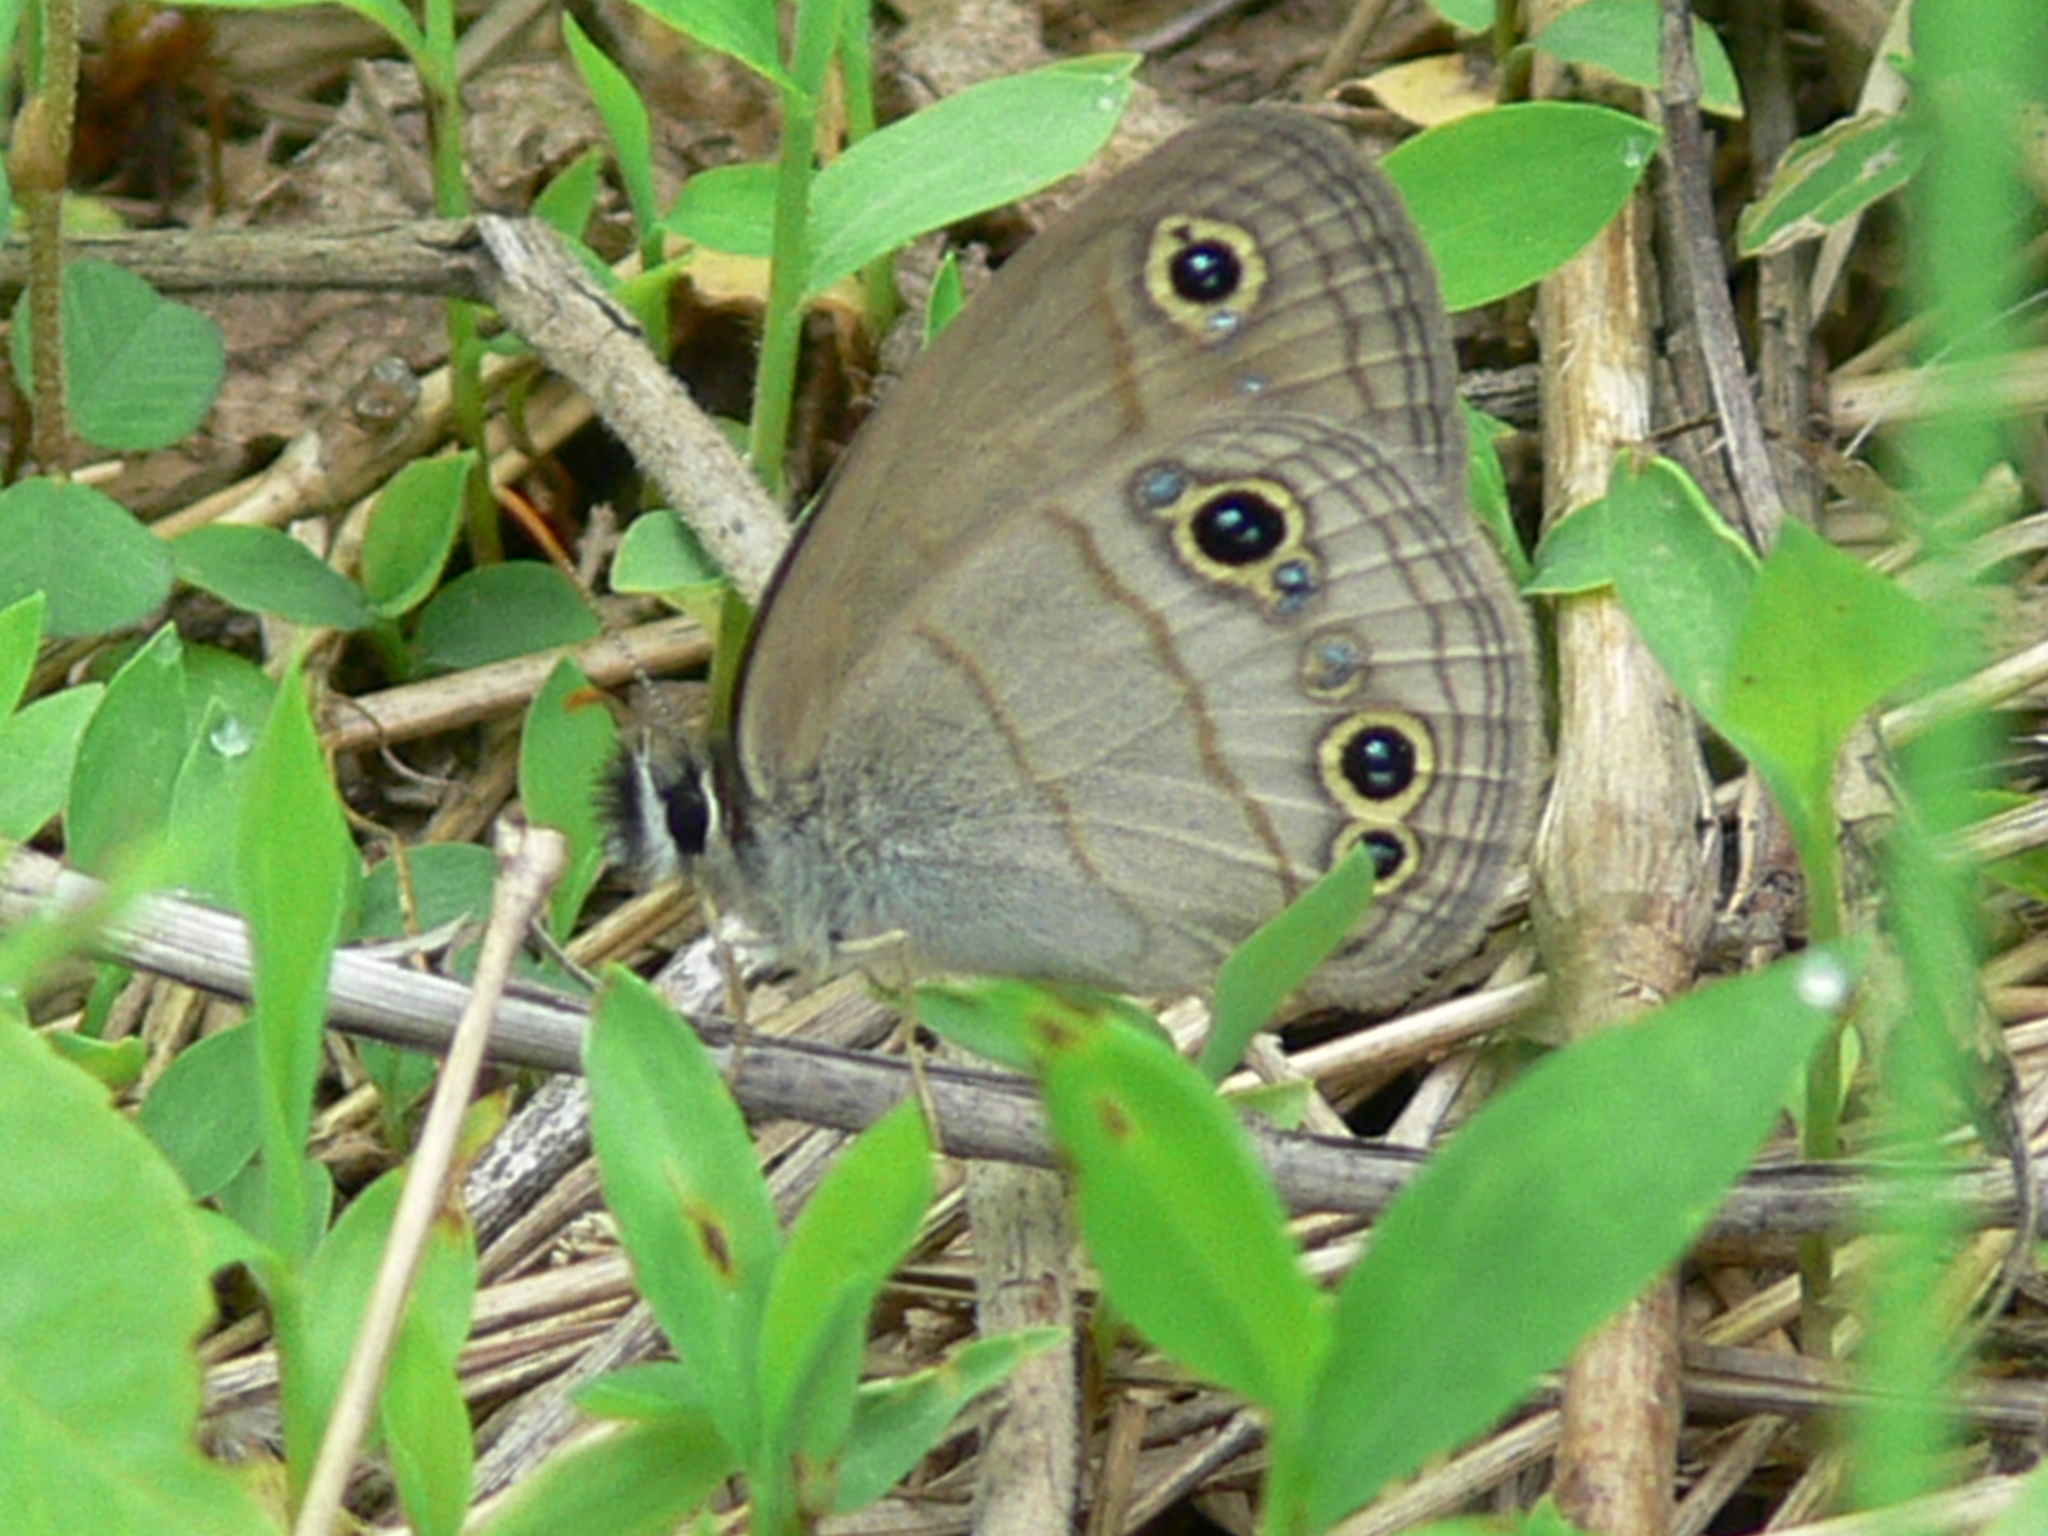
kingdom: Animalia
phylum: Arthropoda
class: Insecta
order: Lepidoptera
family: Nymphalidae
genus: Euptychia
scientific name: Euptychia cymela
